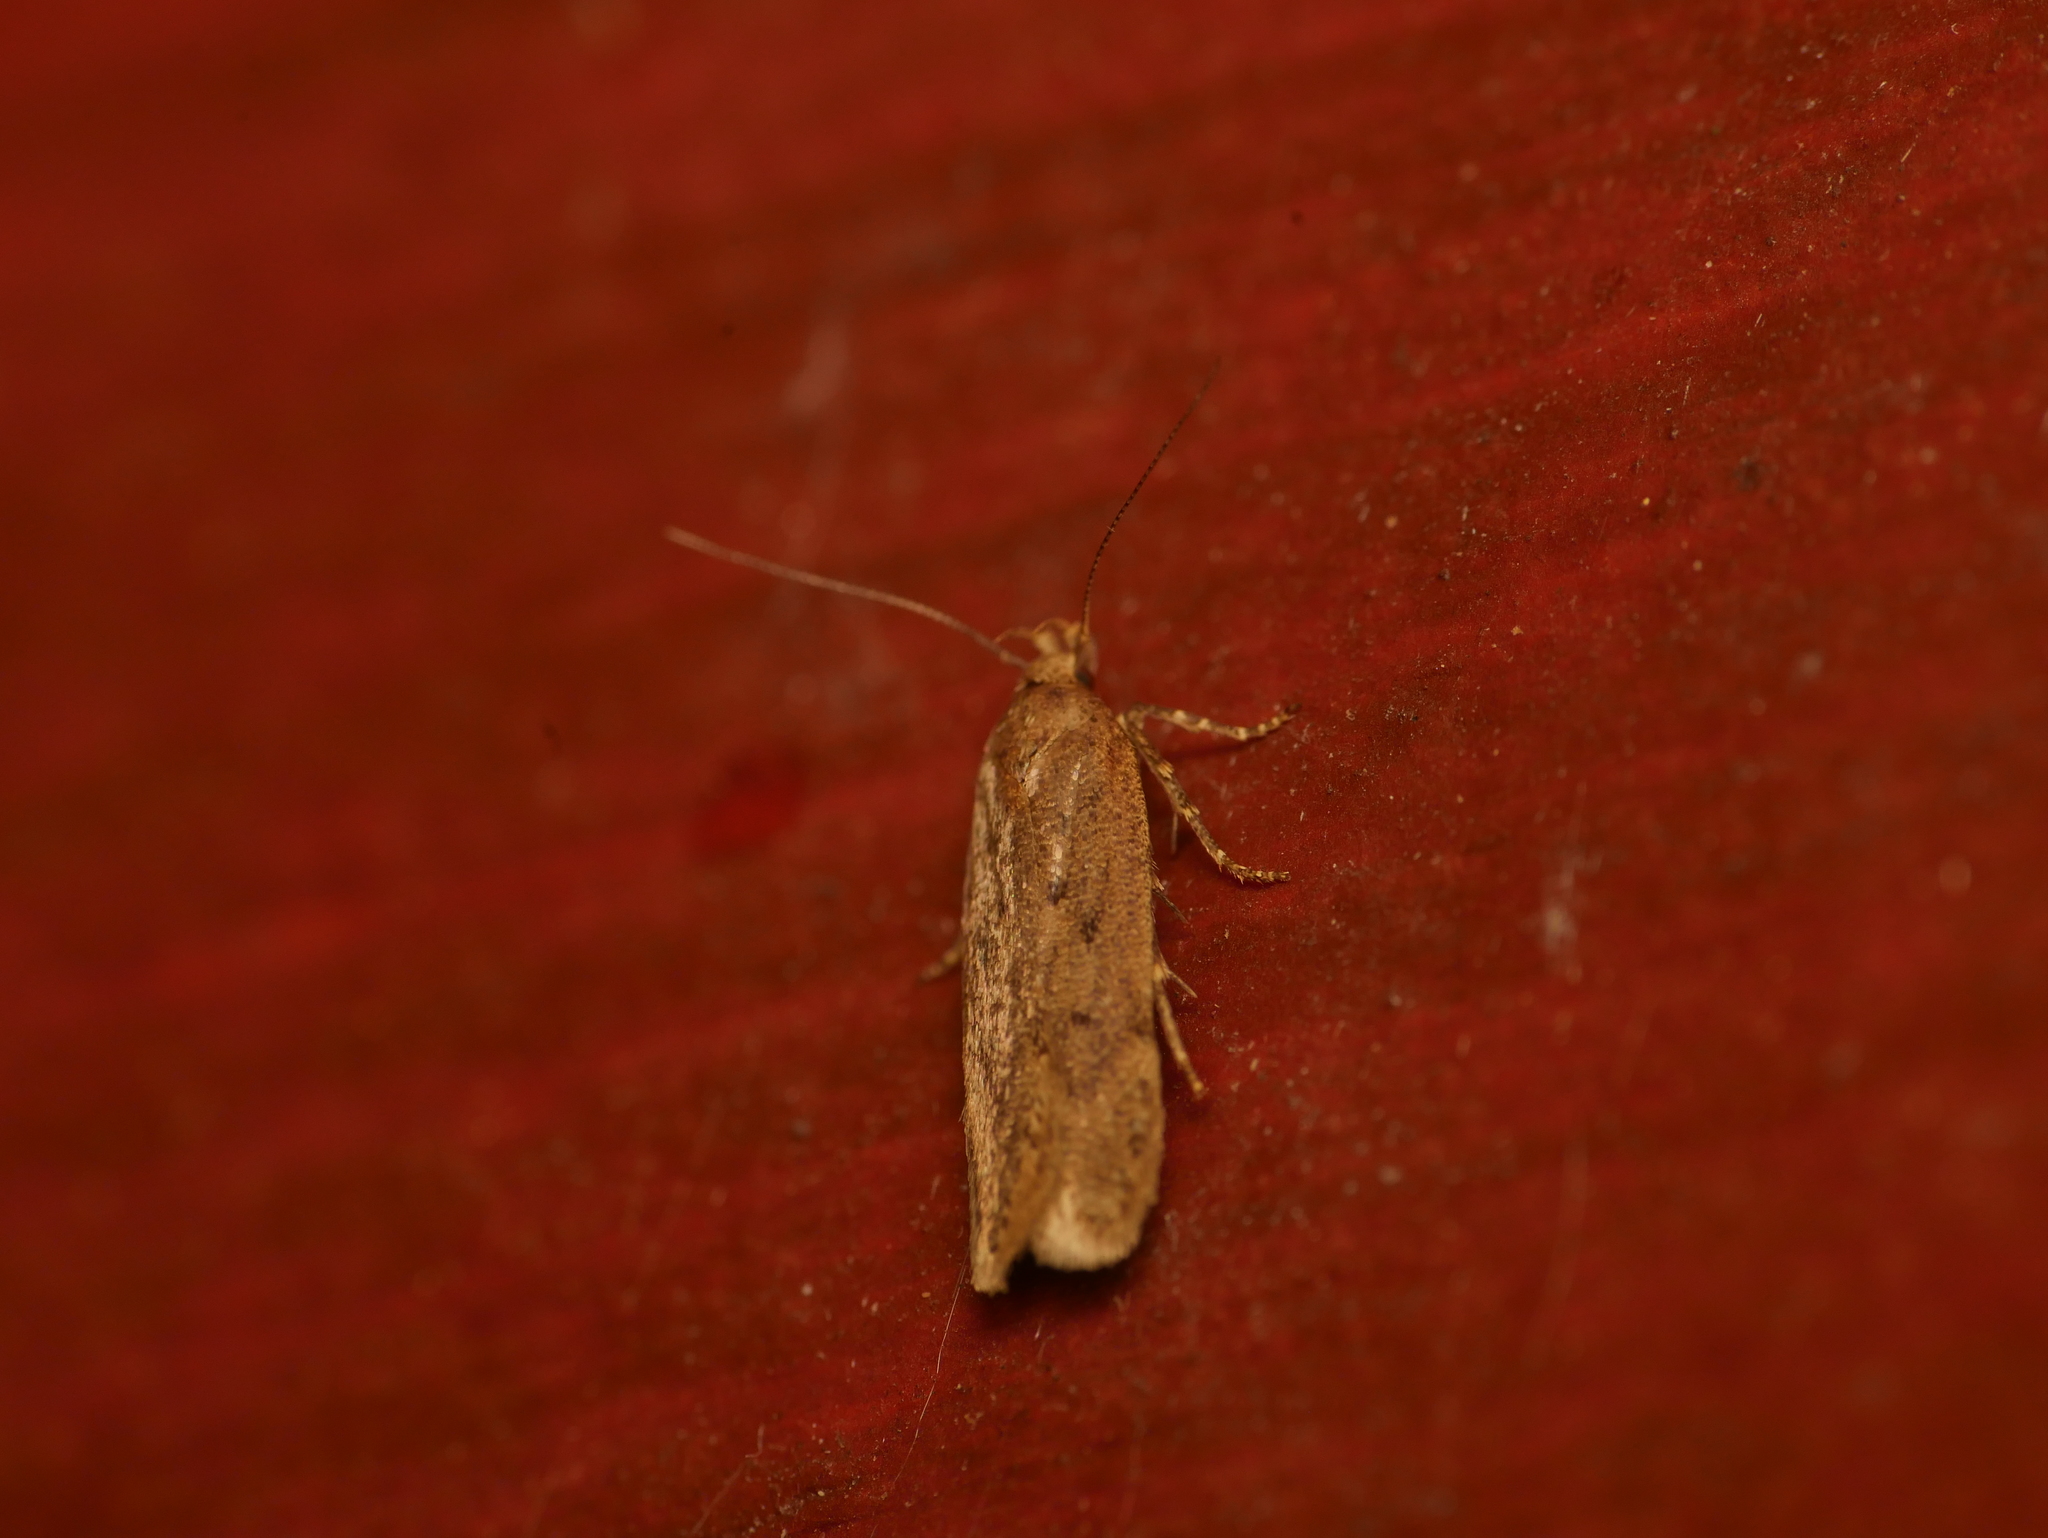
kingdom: Animalia
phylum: Arthropoda
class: Insecta
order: Lepidoptera
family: Oecophoridae
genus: Hofmannophila
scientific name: Hofmannophila pseudospretella
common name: Brown house moth
